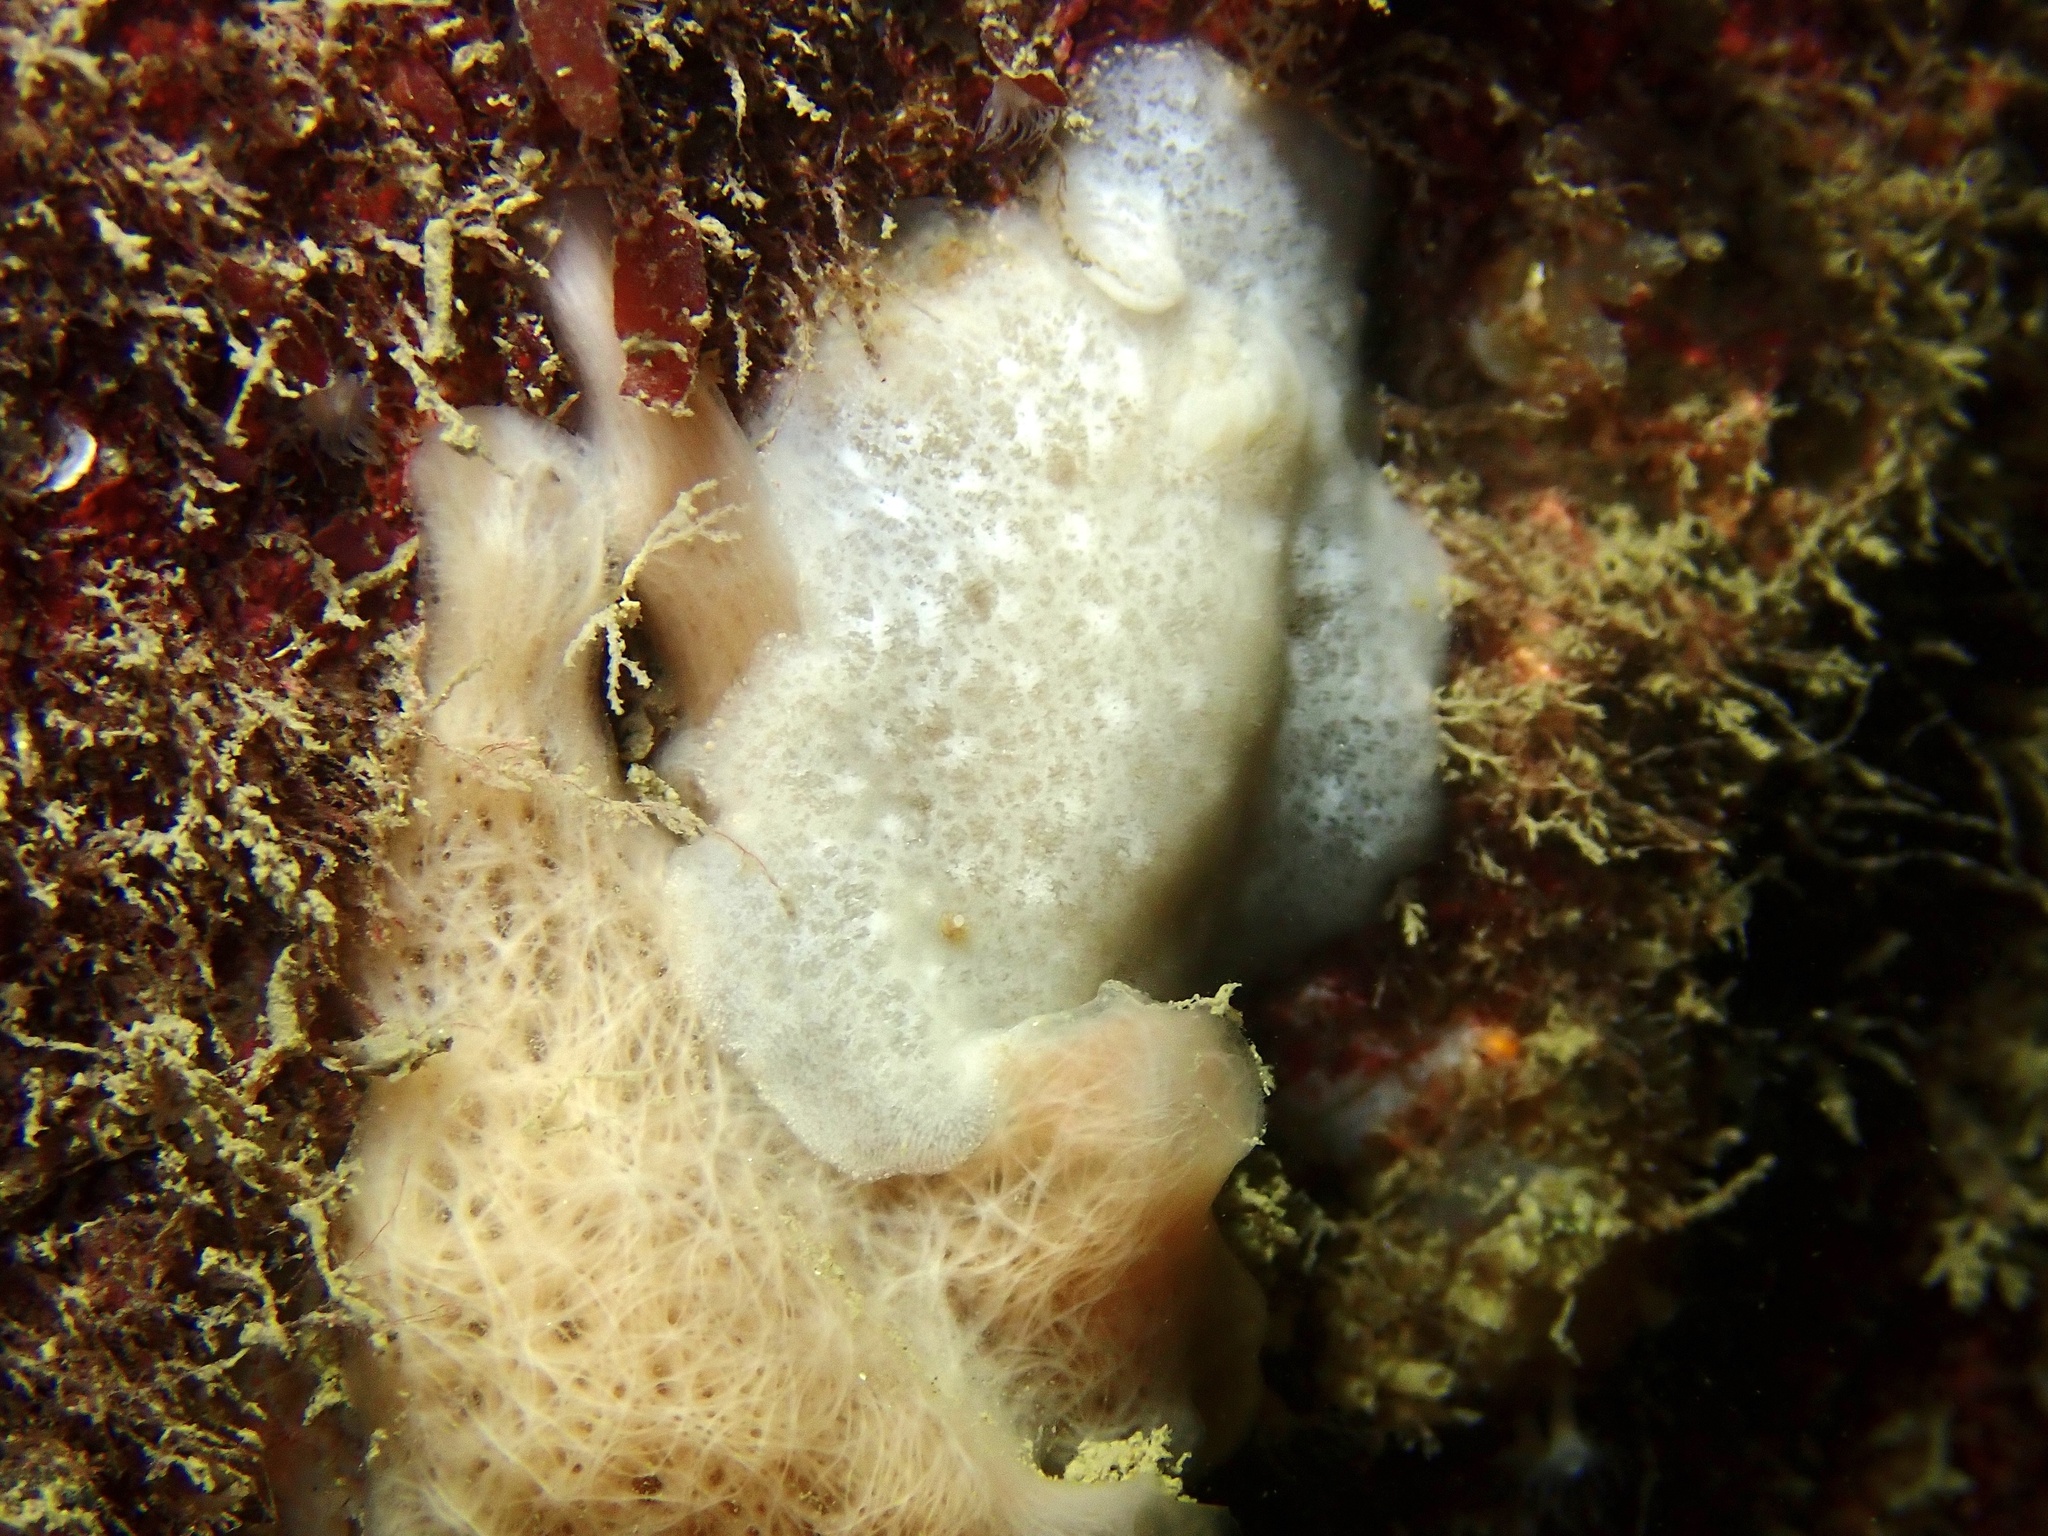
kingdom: Animalia
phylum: Mollusca
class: Gastropoda
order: Nudibranchia
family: Discodorididae
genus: Jorunna
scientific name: Jorunna tomentosa
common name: Grey sea slug
